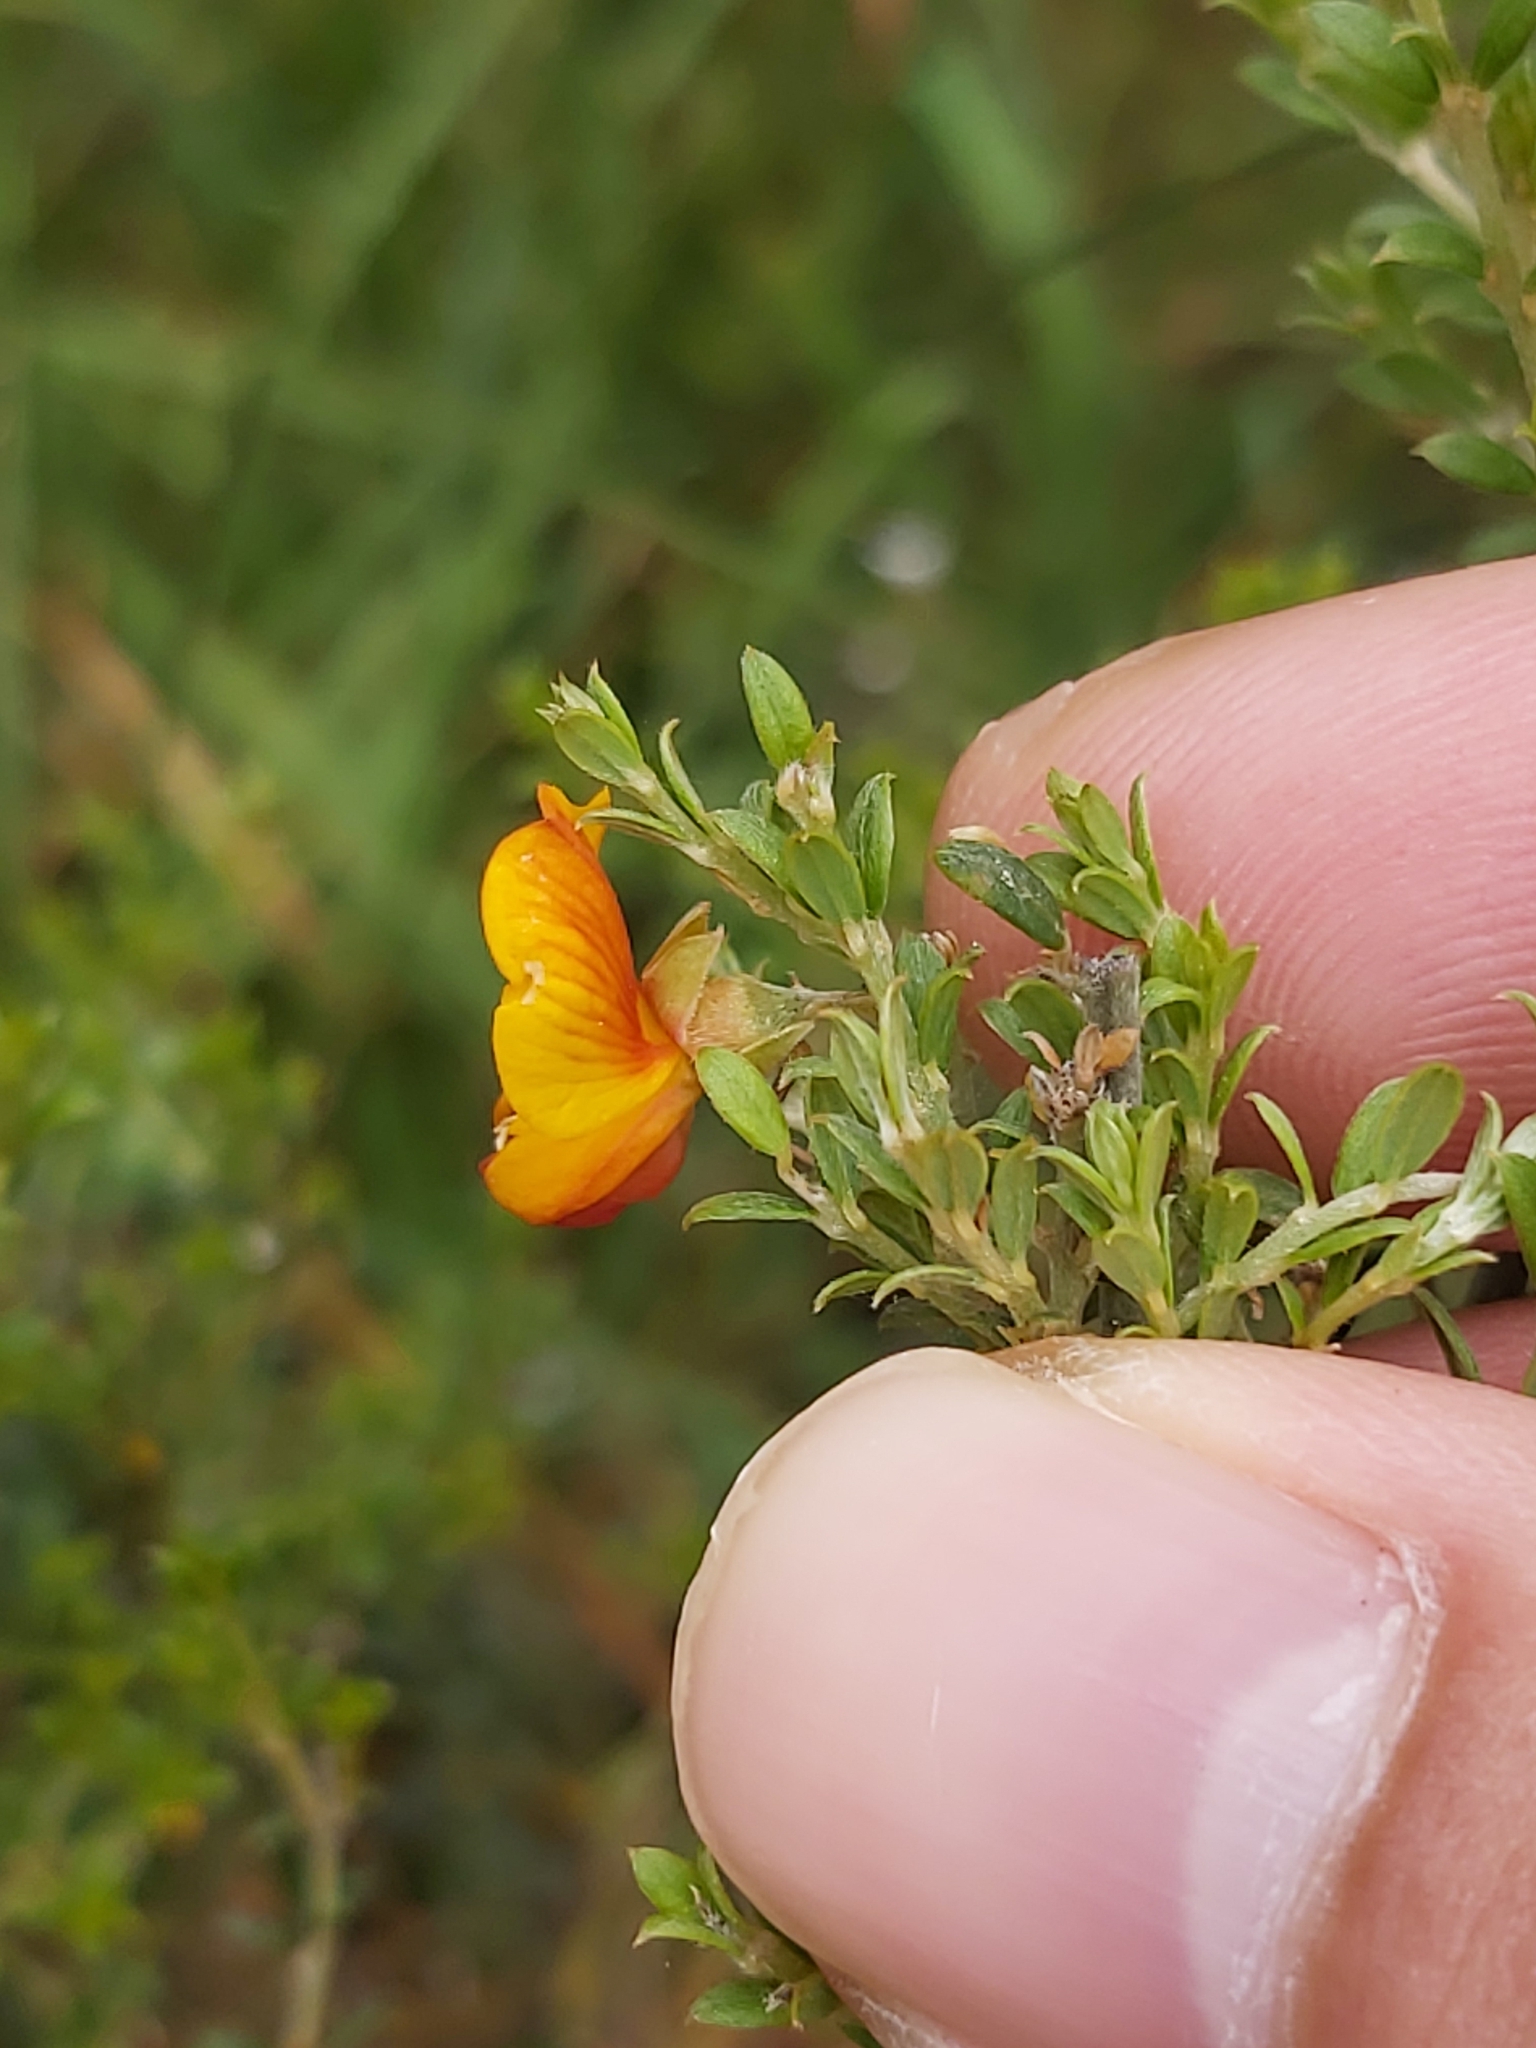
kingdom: Plantae
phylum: Tracheophyta
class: Magnoliopsida
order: Fabales
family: Fabaceae
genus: Oxylobium
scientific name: Oxylobium oxylobioides
